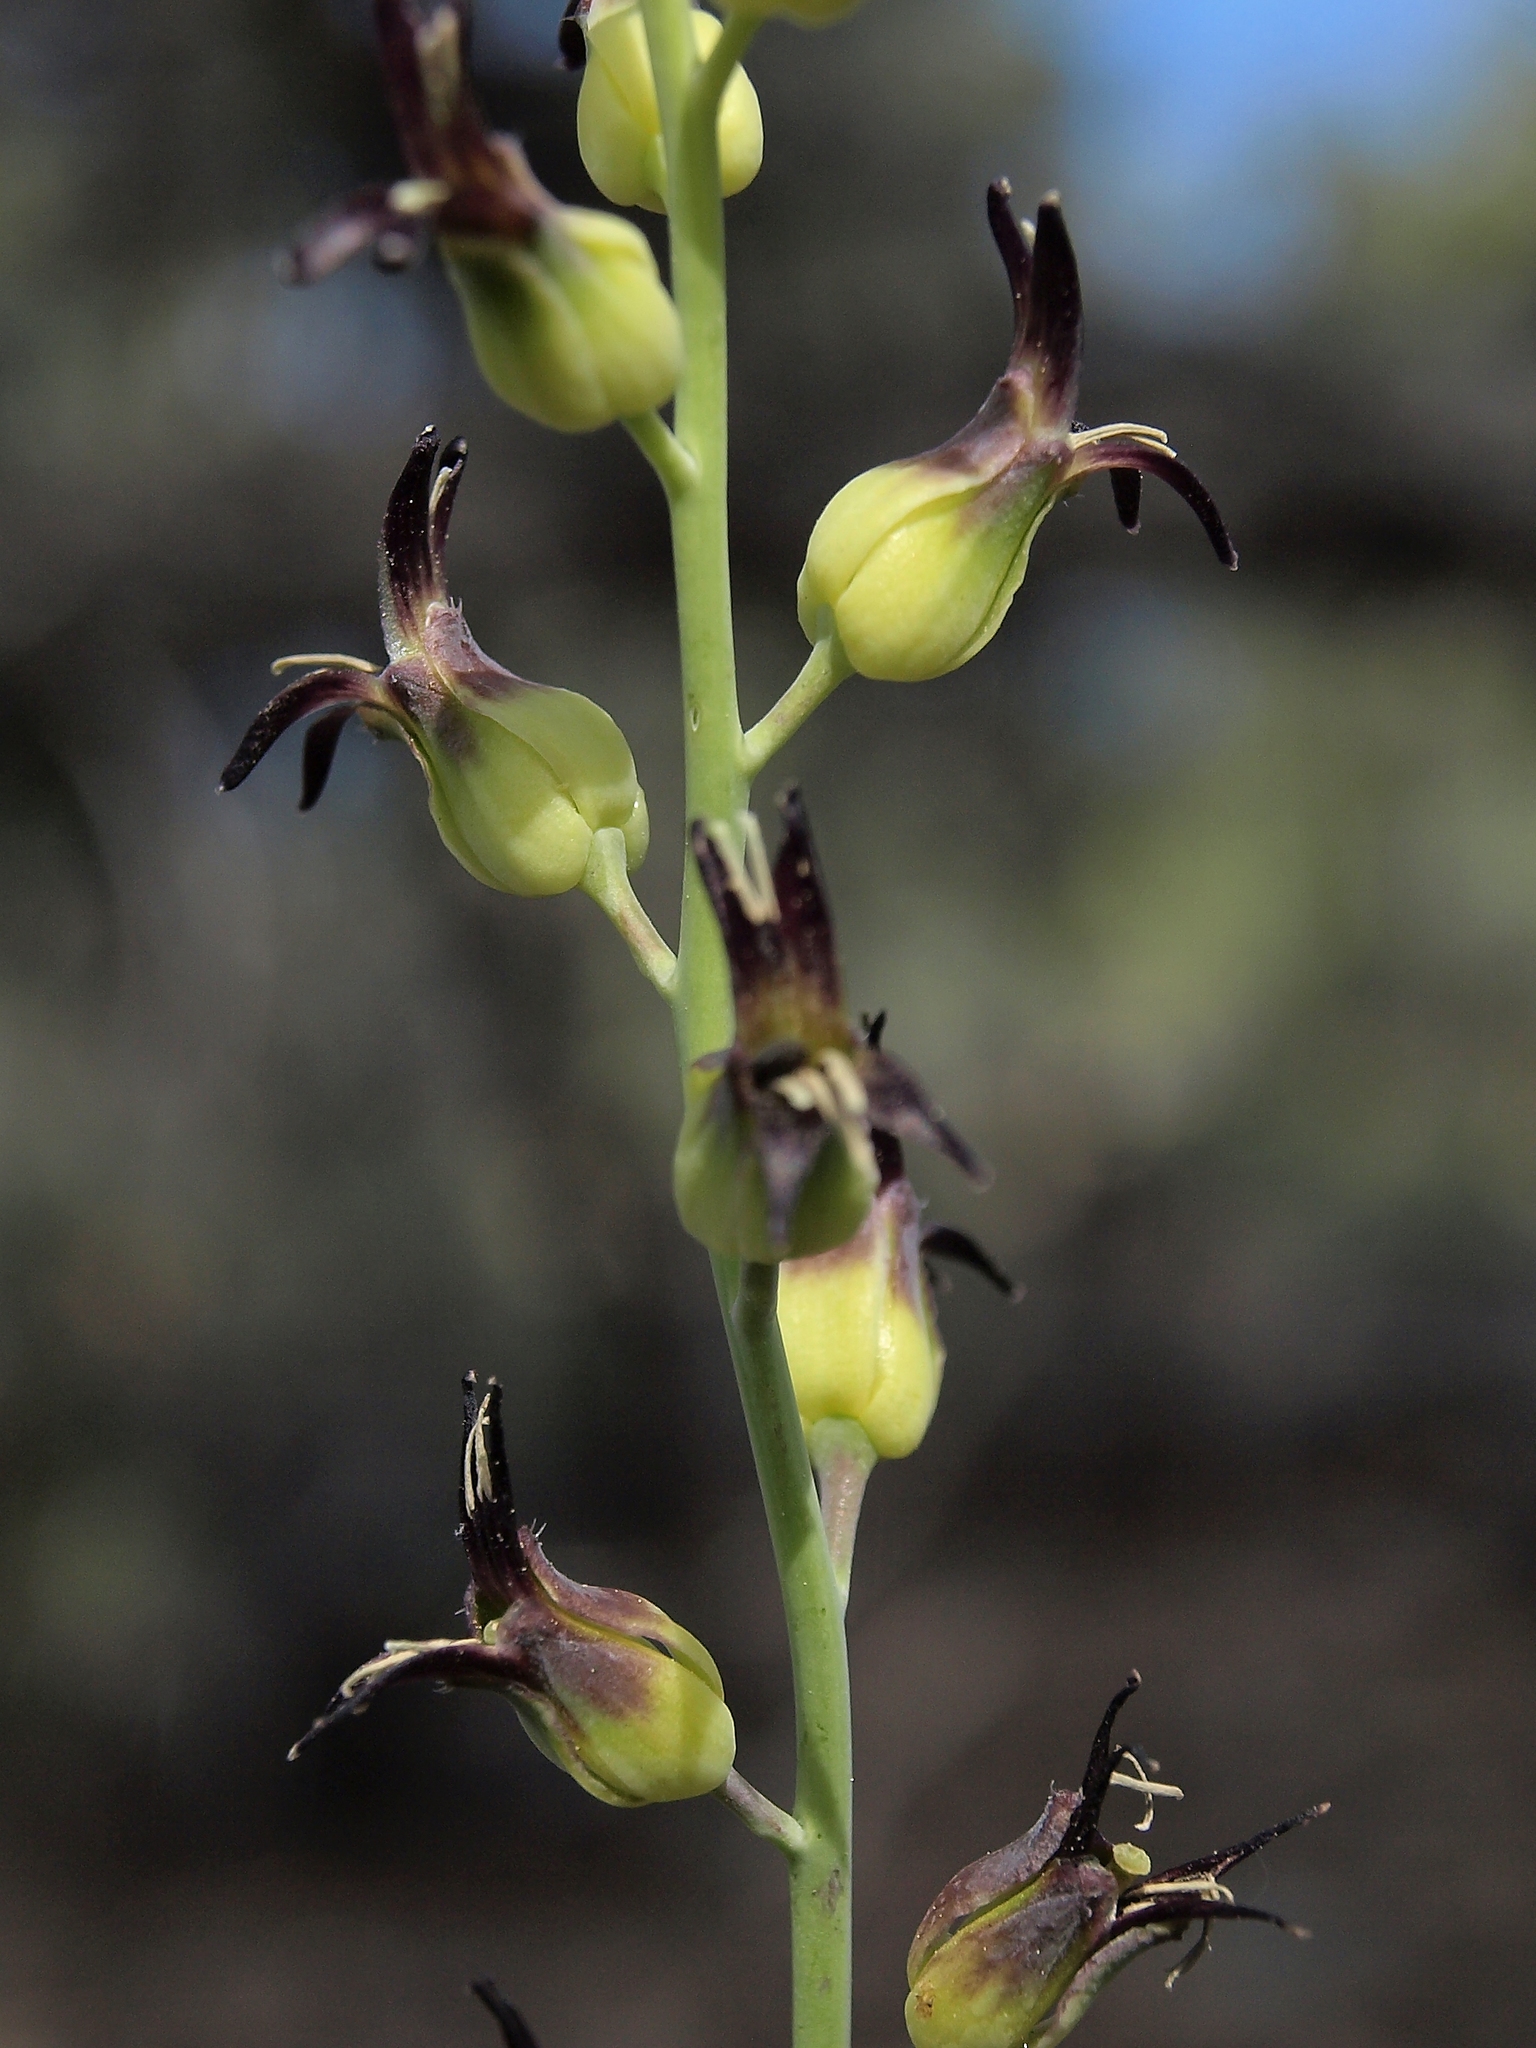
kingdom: Plantae
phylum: Tracheophyta
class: Magnoliopsida
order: Brassicales
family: Brassicaceae
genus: Streptanthus
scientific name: Streptanthus cordatus
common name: Heart-leaf jewel-flower
